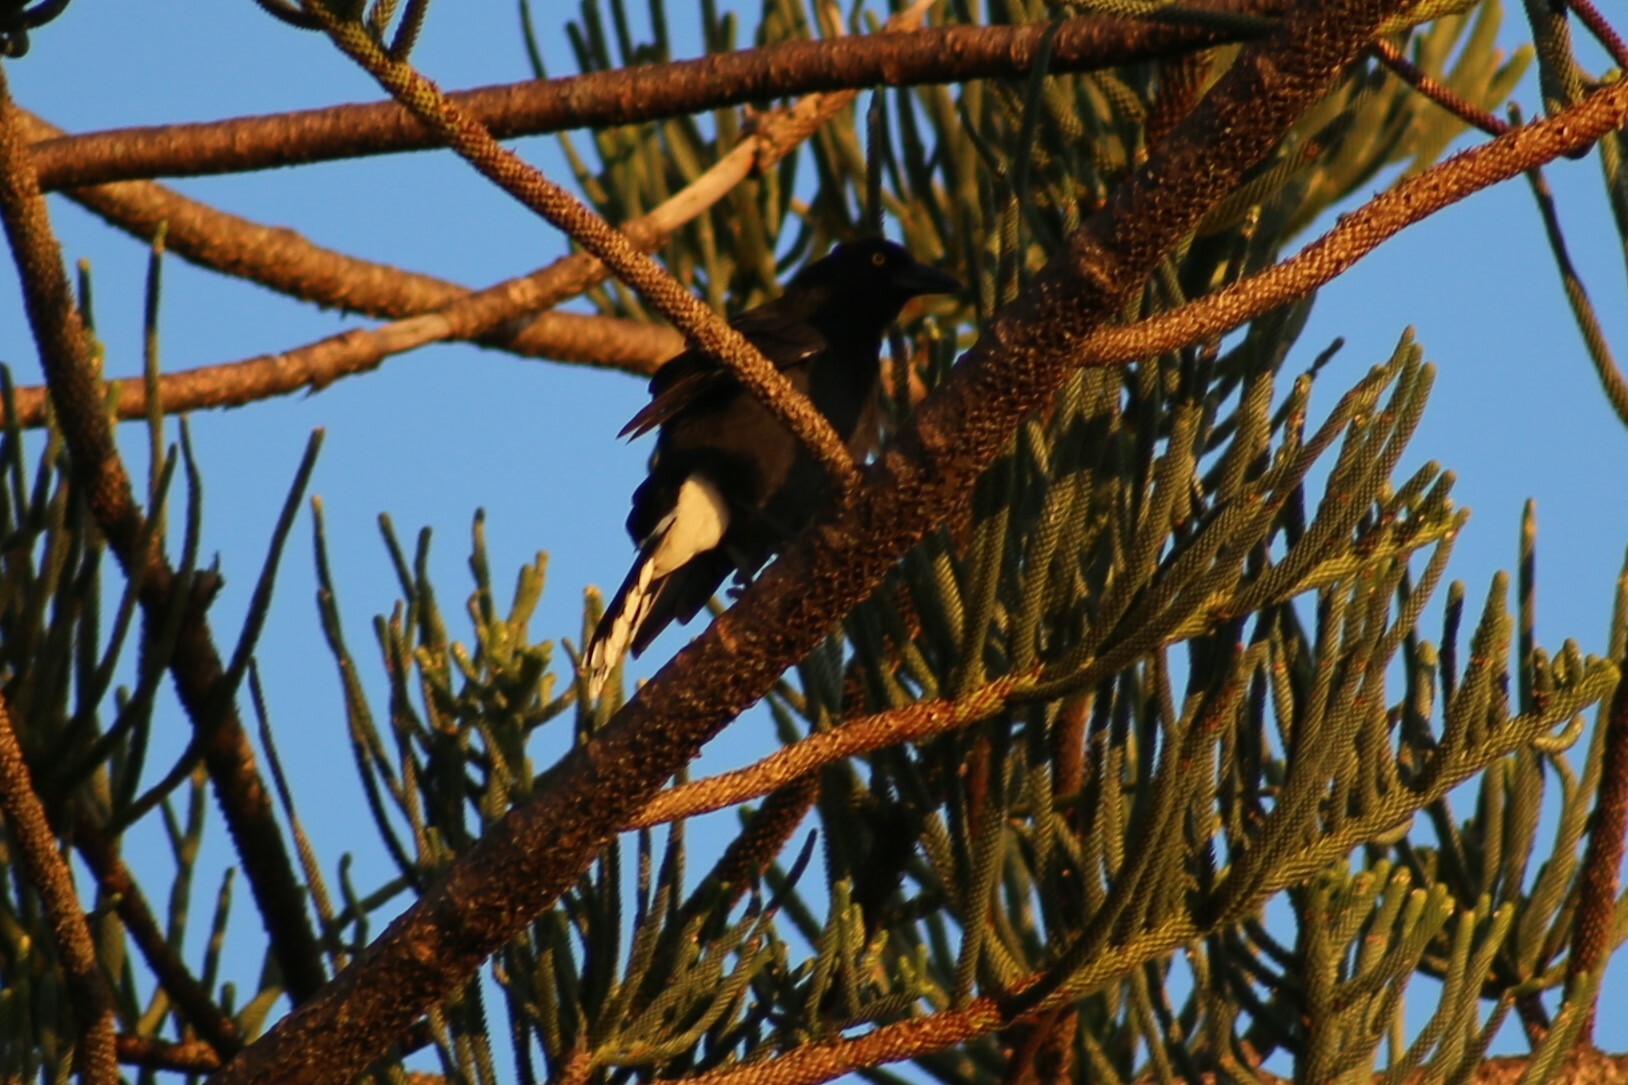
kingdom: Animalia
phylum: Chordata
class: Aves
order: Passeriformes
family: Cracticidae
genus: Strepera
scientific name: Strepera graculina
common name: Pied currawong
